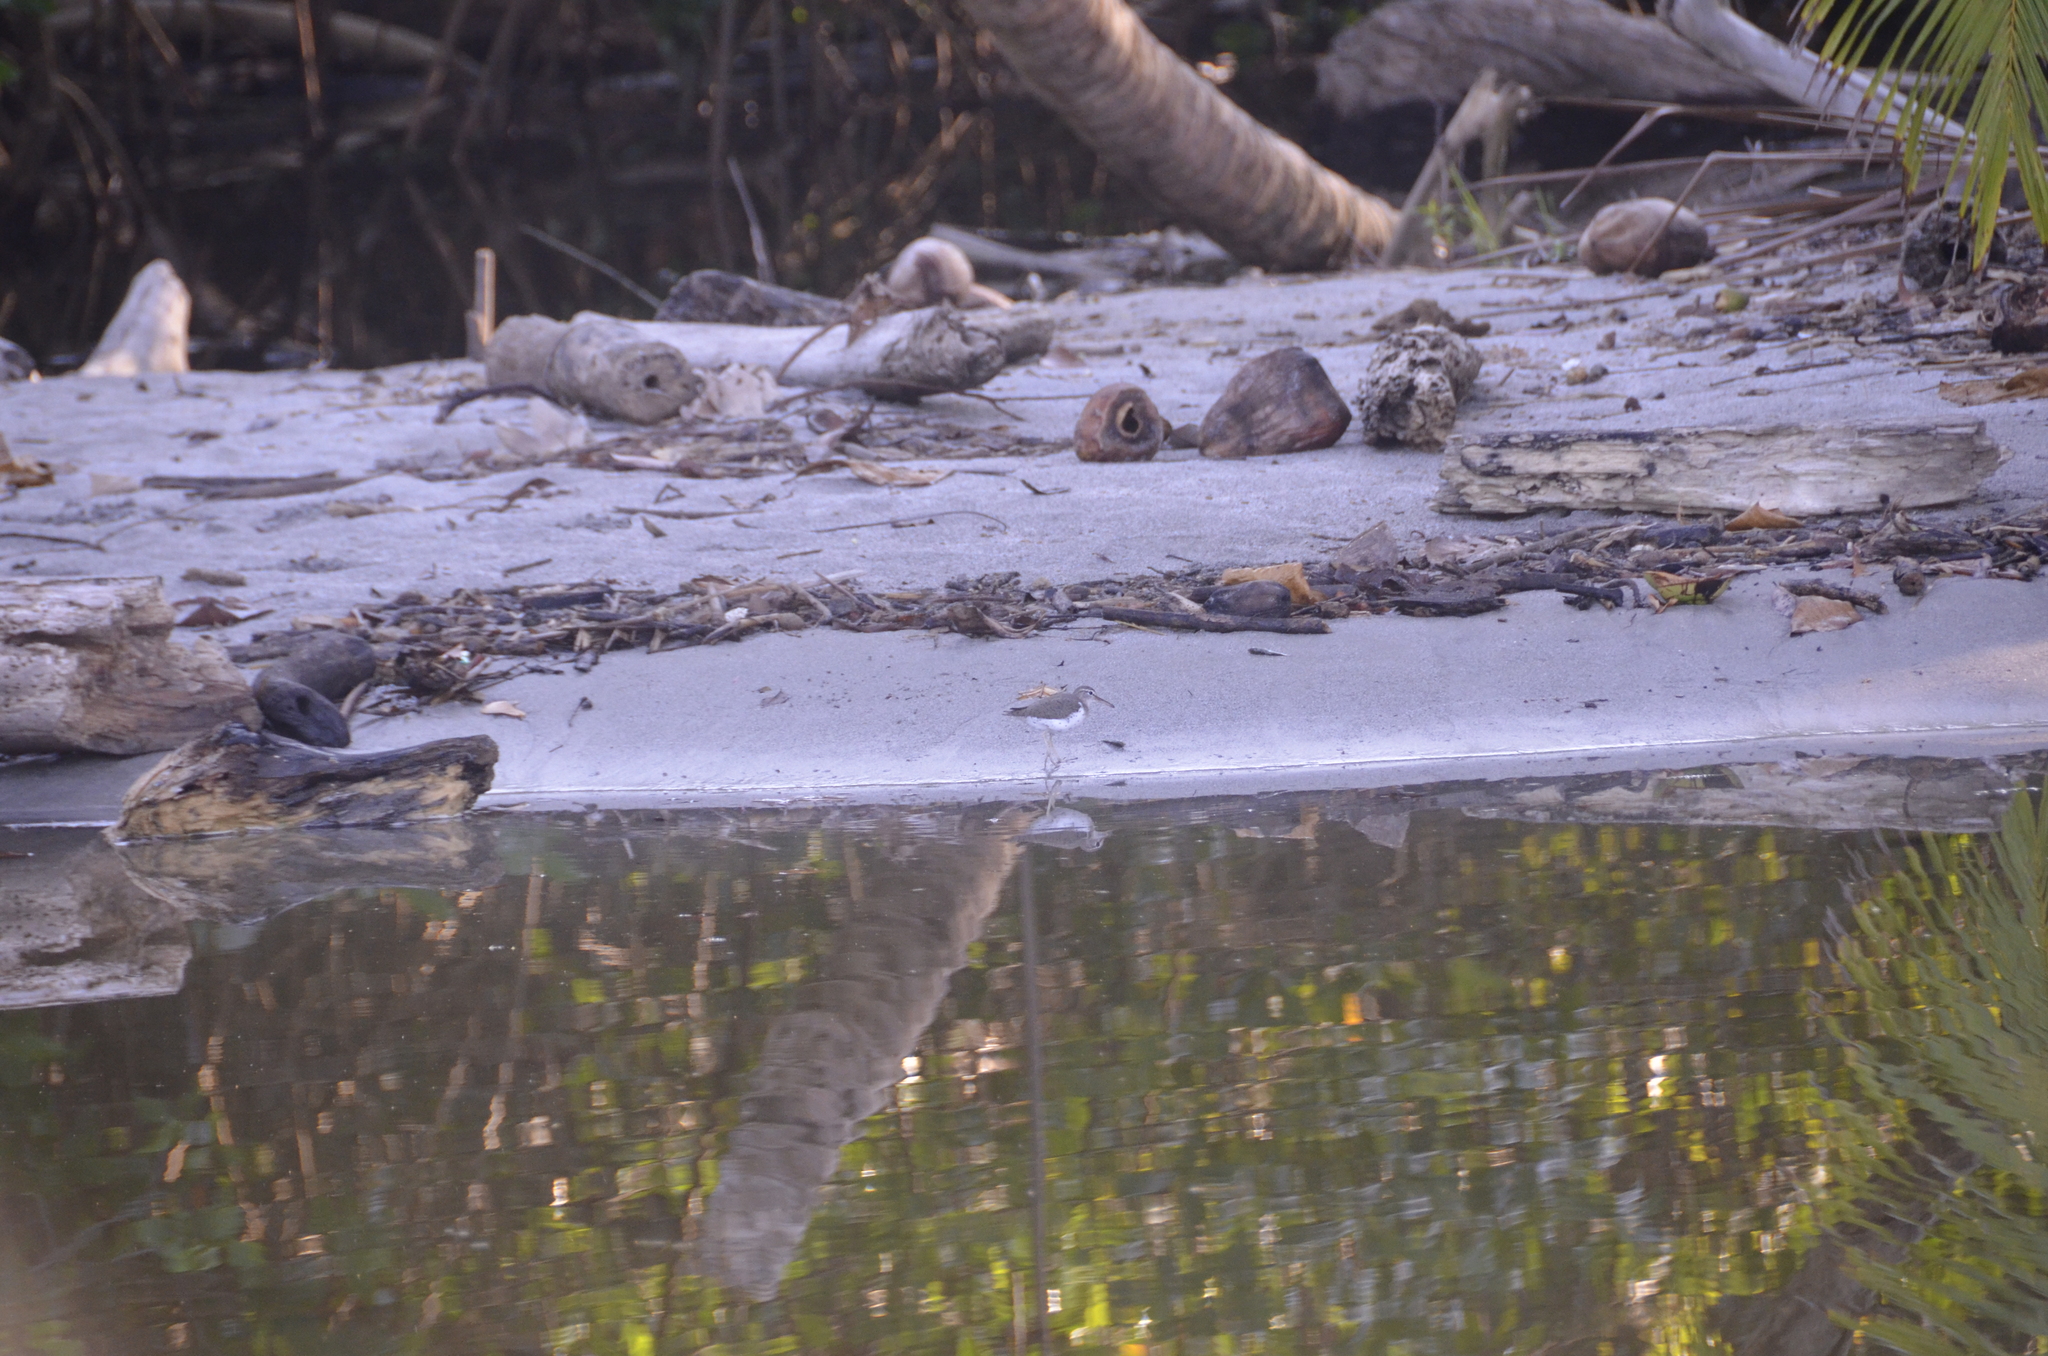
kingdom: Animalia
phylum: Chordata
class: Aves
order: Charadriiformes
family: Scolopacidae
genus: Actitis
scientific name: Actitis macularius
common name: Spotted sandpiper
